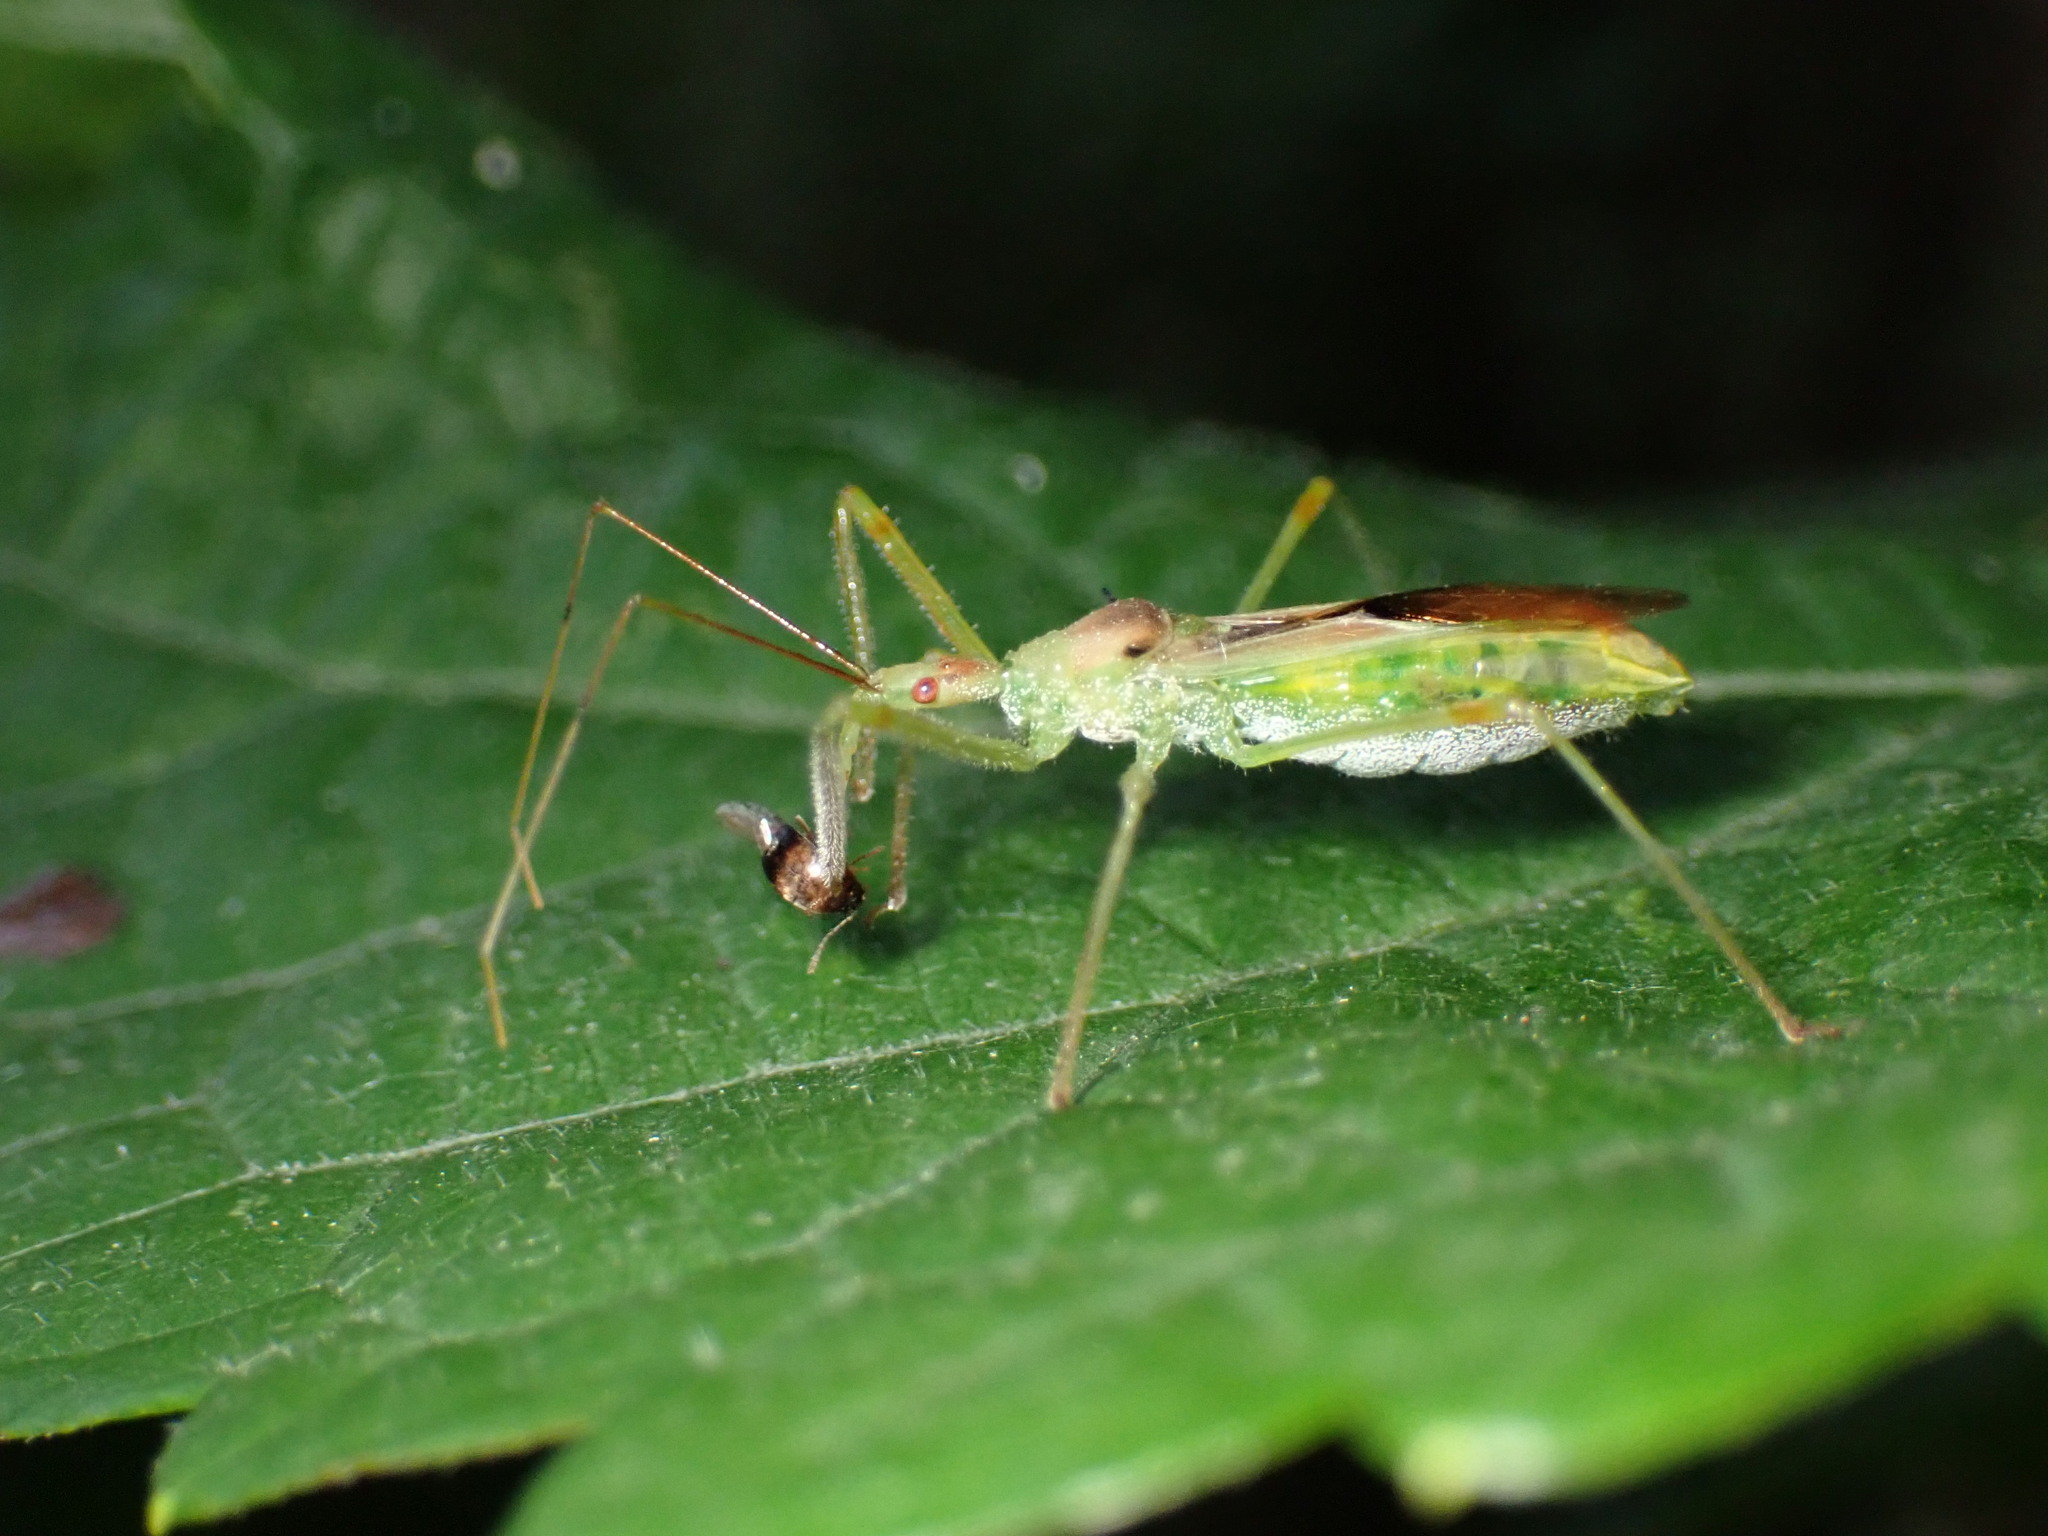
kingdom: Animalia
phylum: Arthropoda
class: Insecta
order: Hemiptera
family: Reduviidae
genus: Zelus
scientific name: Zelus luridus
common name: Pale green assassin bug
